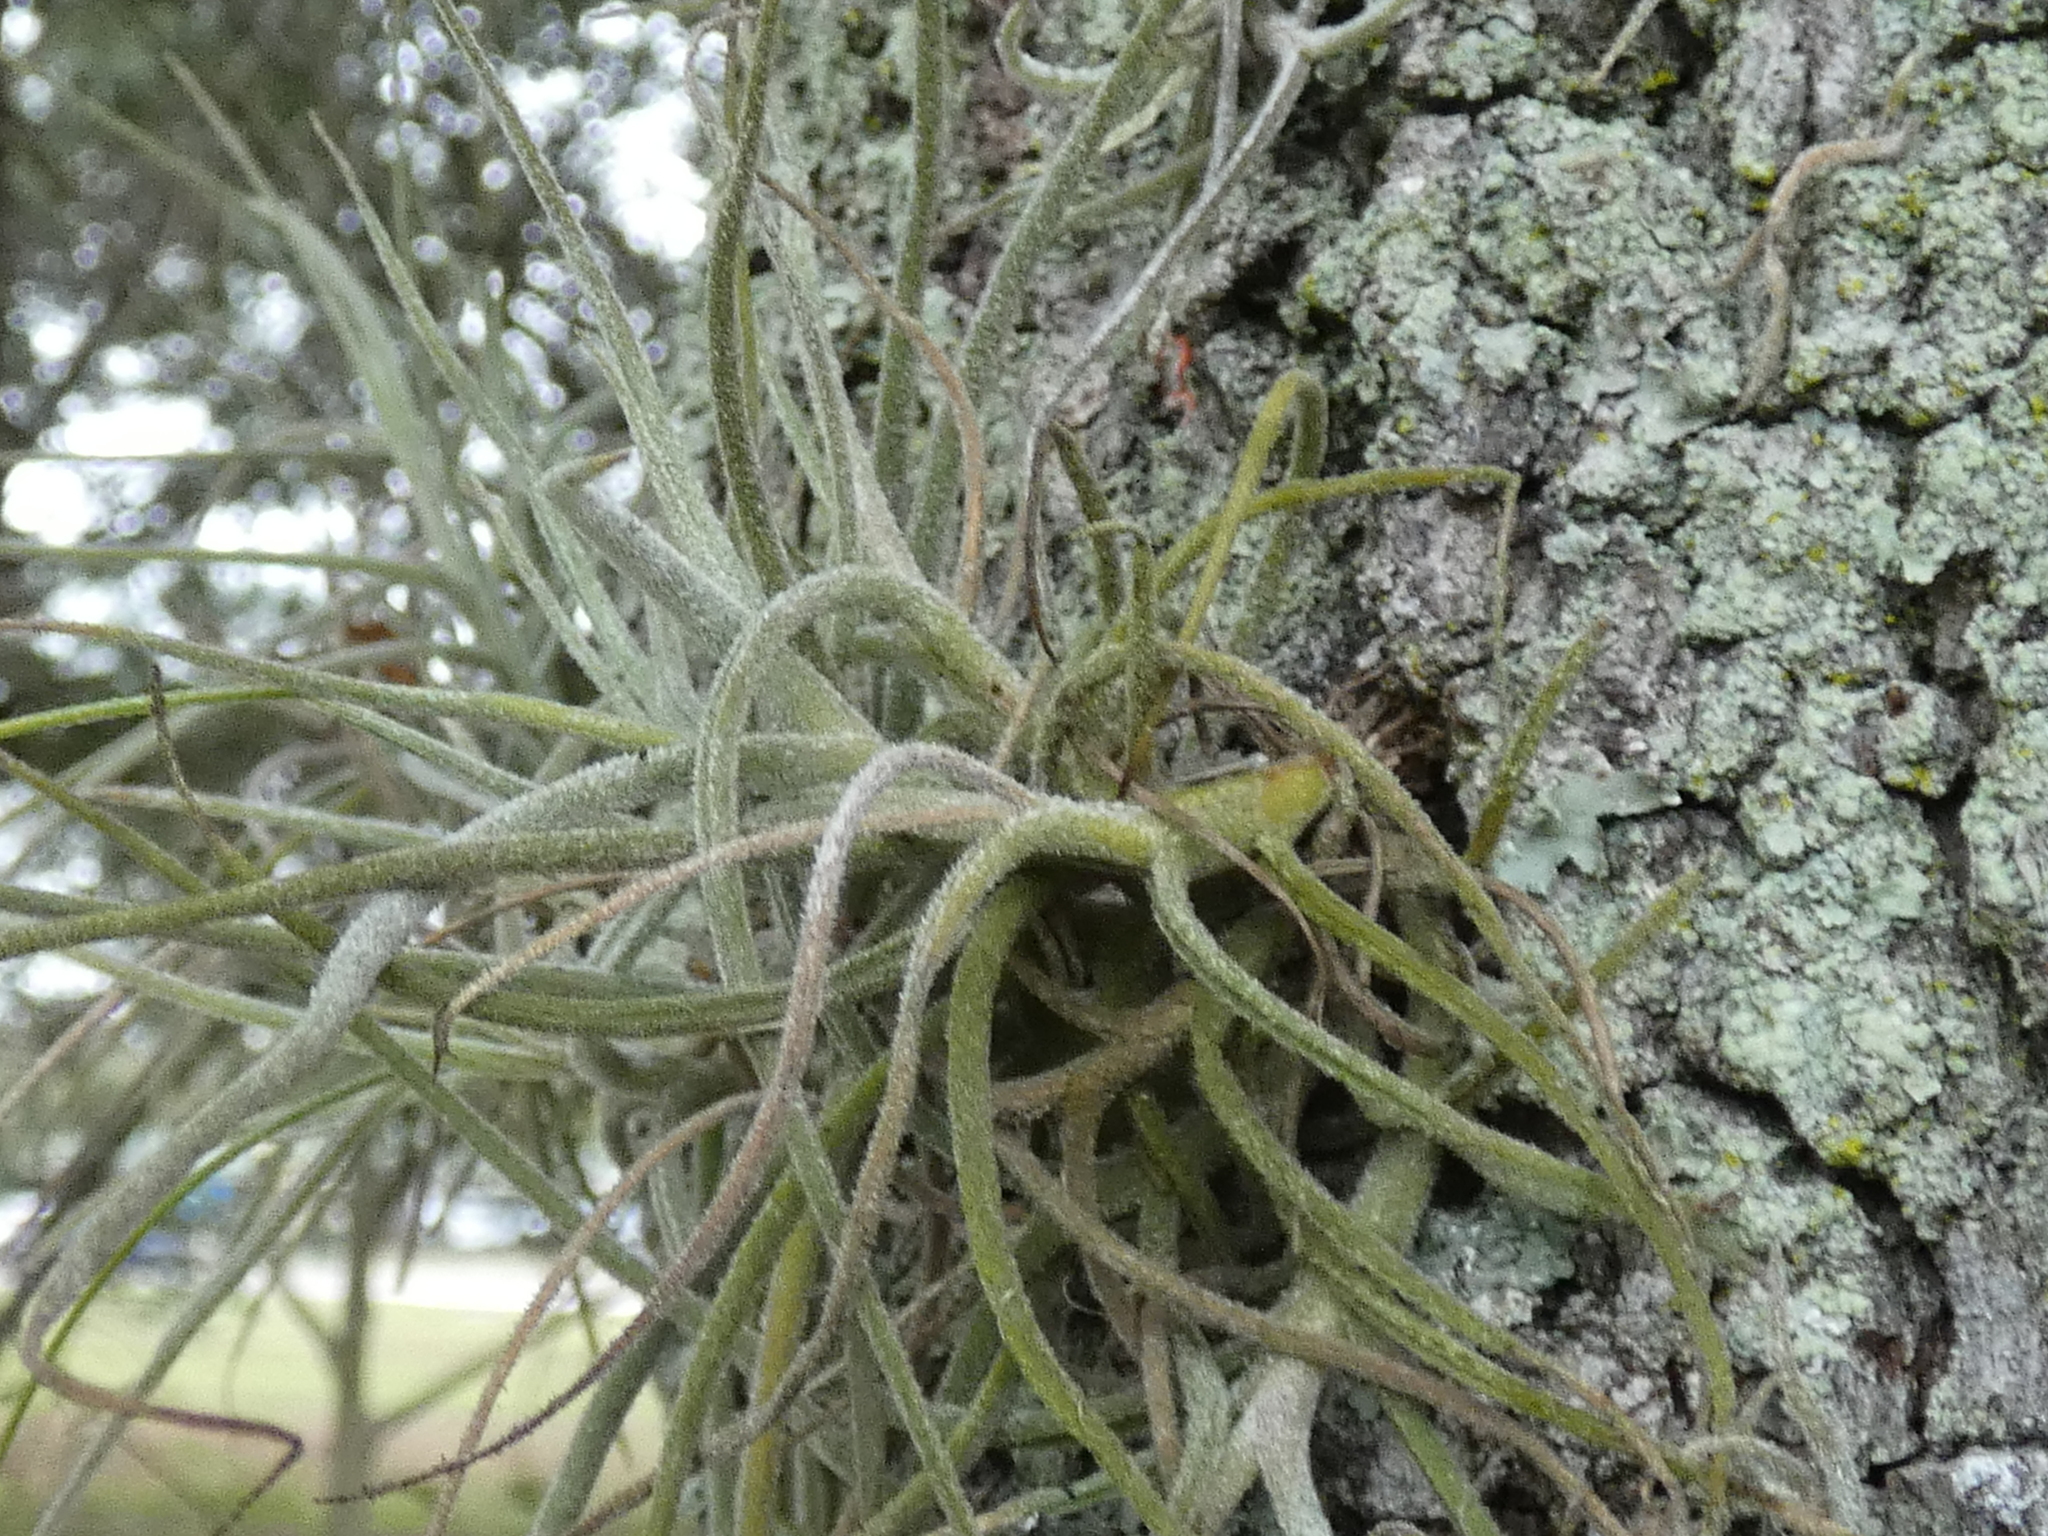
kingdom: Plantae
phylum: Tracheophyta
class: Liliopsida
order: Poales
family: Bromeliaceae
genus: Tillandsia
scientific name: Tillandsia recurvata
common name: Small ballmoss
